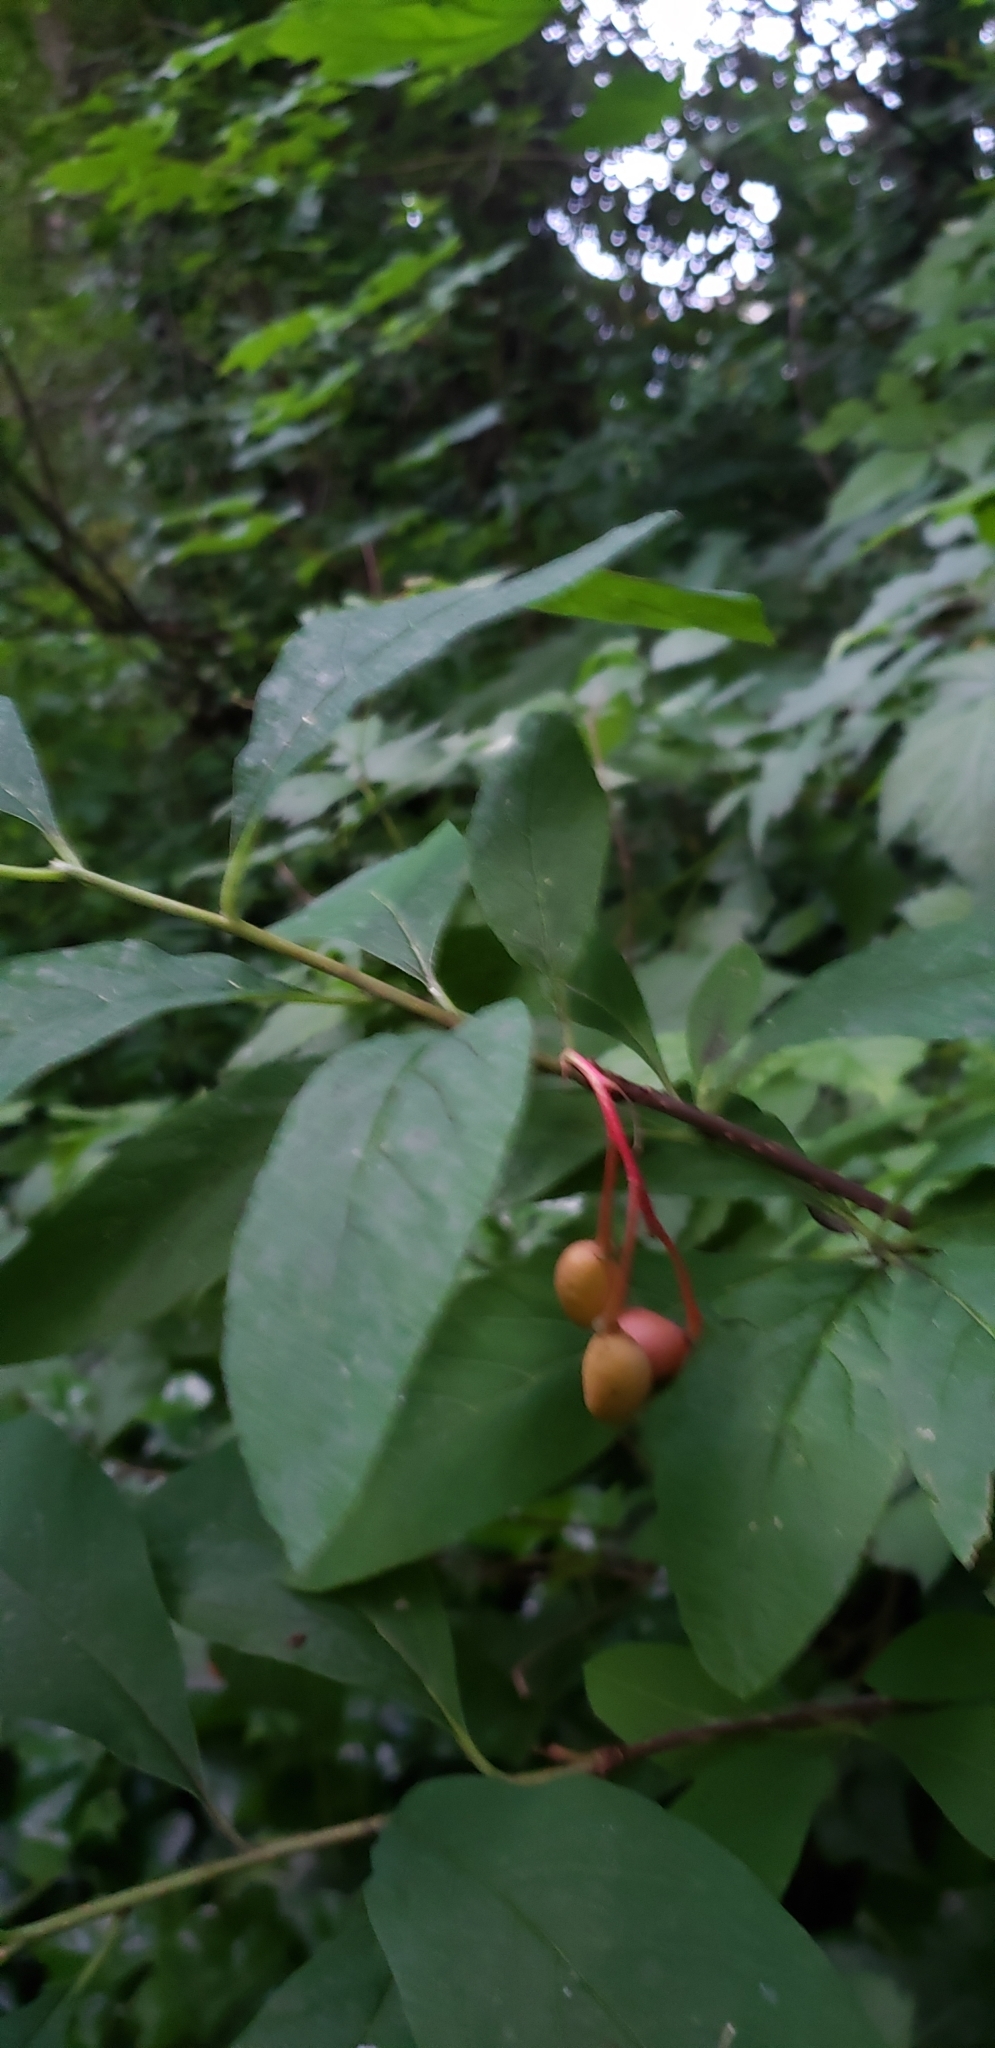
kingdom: Plantae
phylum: Tracheophyta
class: Magnoliopsida
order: Rosales
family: Rosaceae
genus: Oemleria
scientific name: Oemleria cerasiformis
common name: Osoberry
